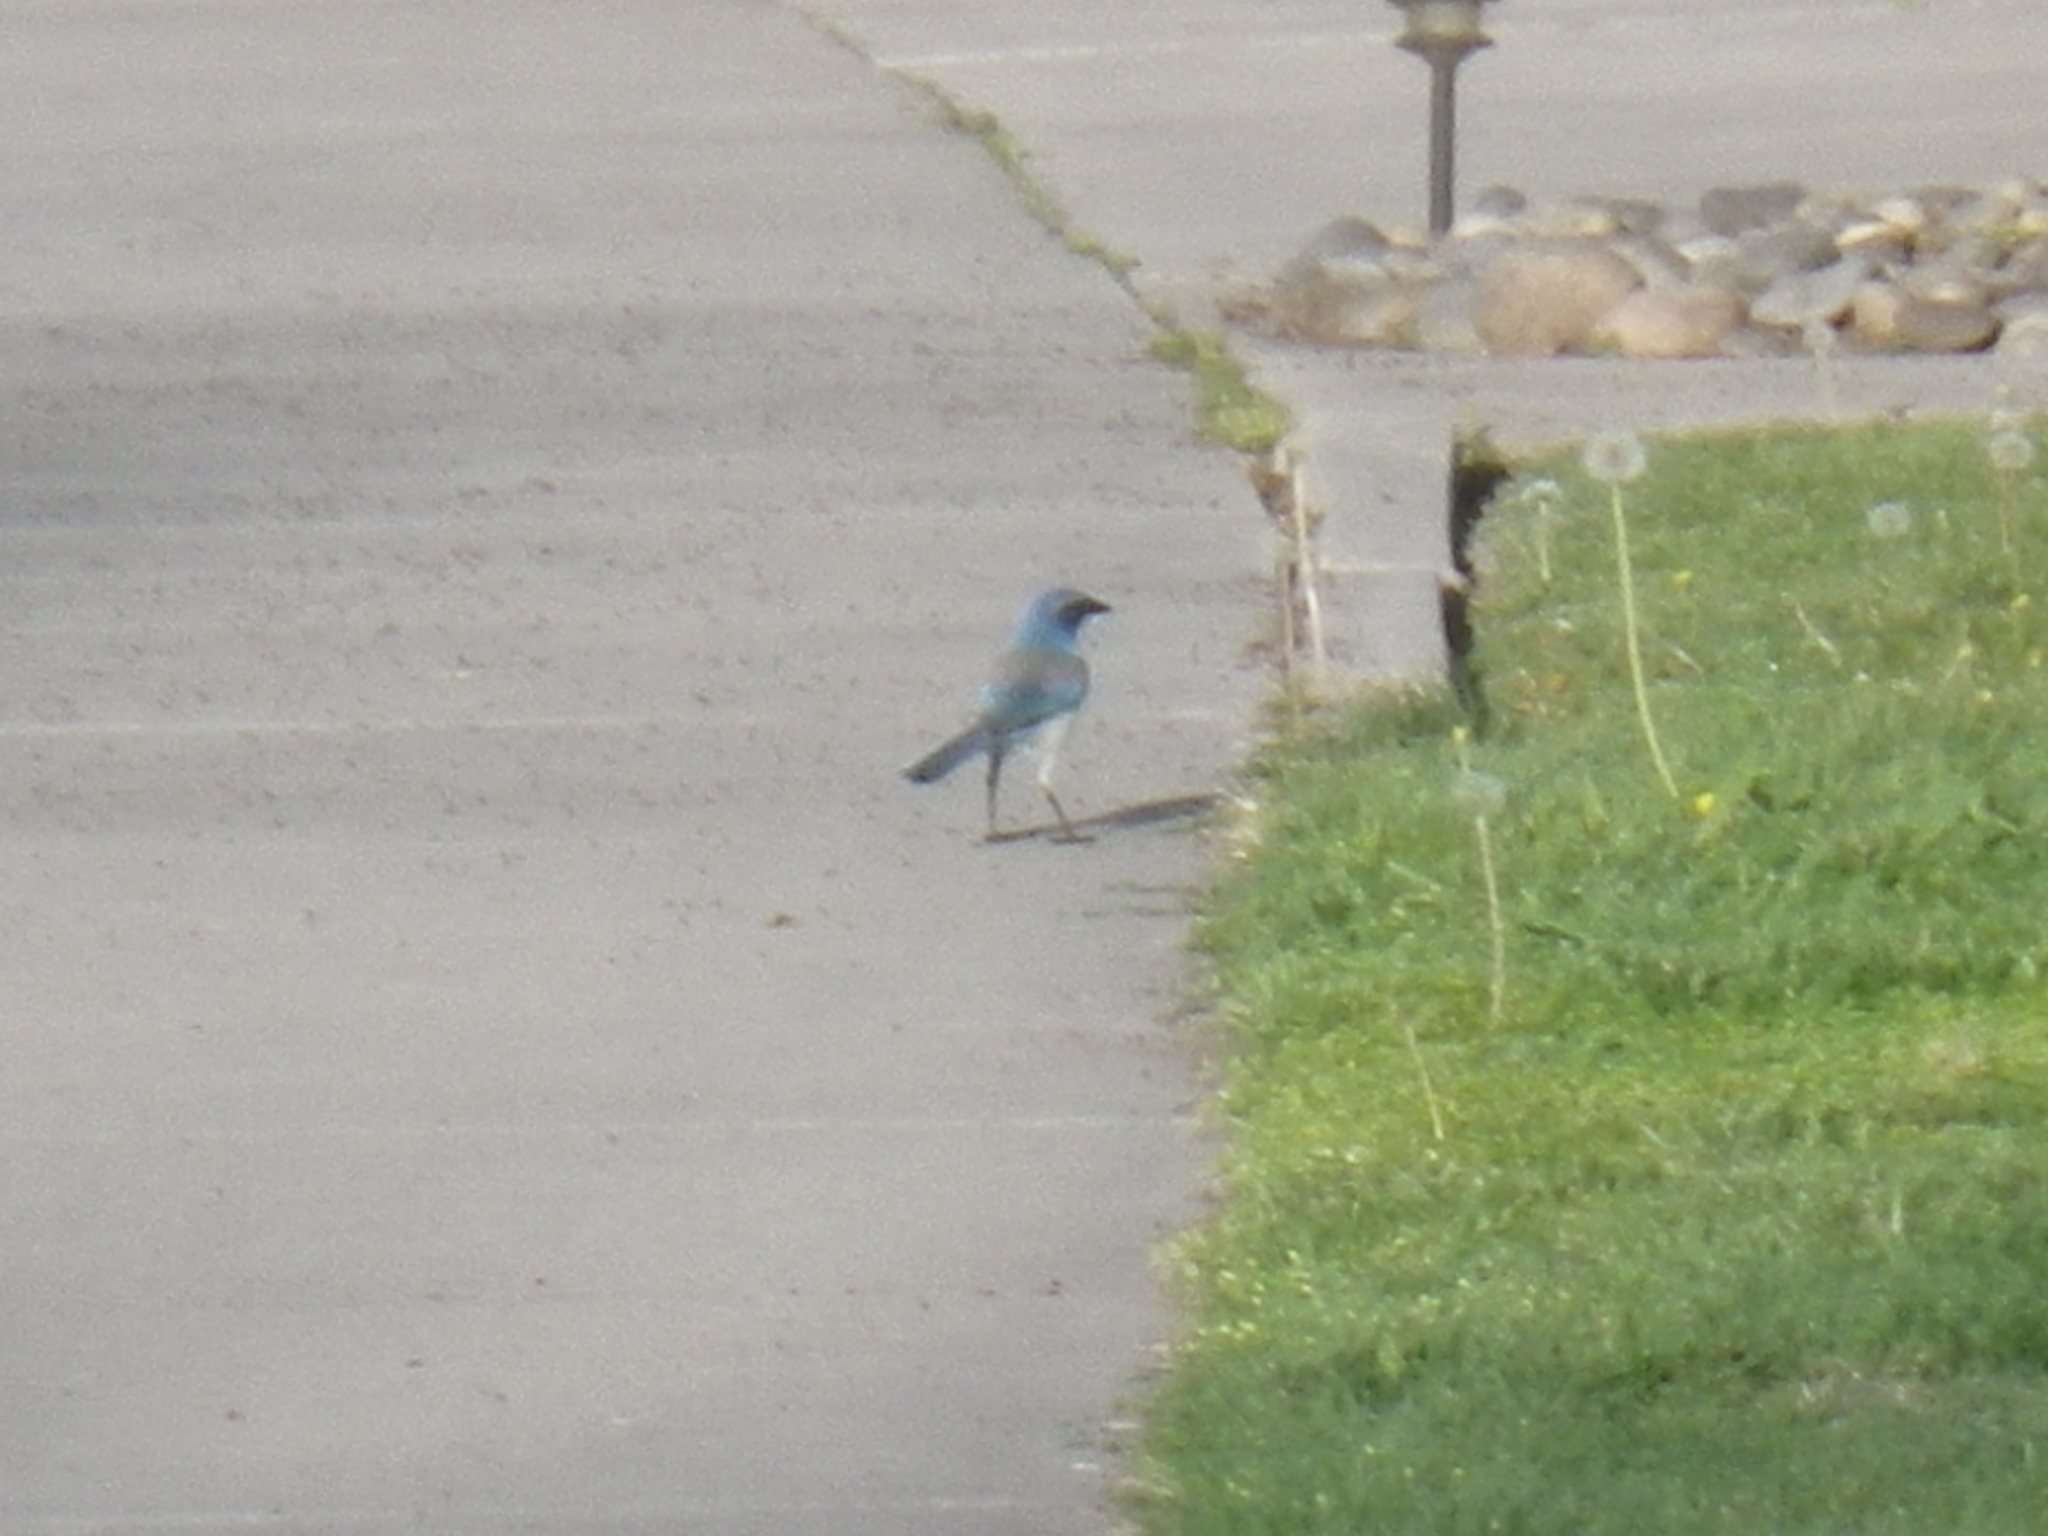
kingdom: Animalia
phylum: Chordata
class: Aves
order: Passeriformes
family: Corvidae
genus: Aphelocoma
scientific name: Aphelocoma californica
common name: California scrub-jay
